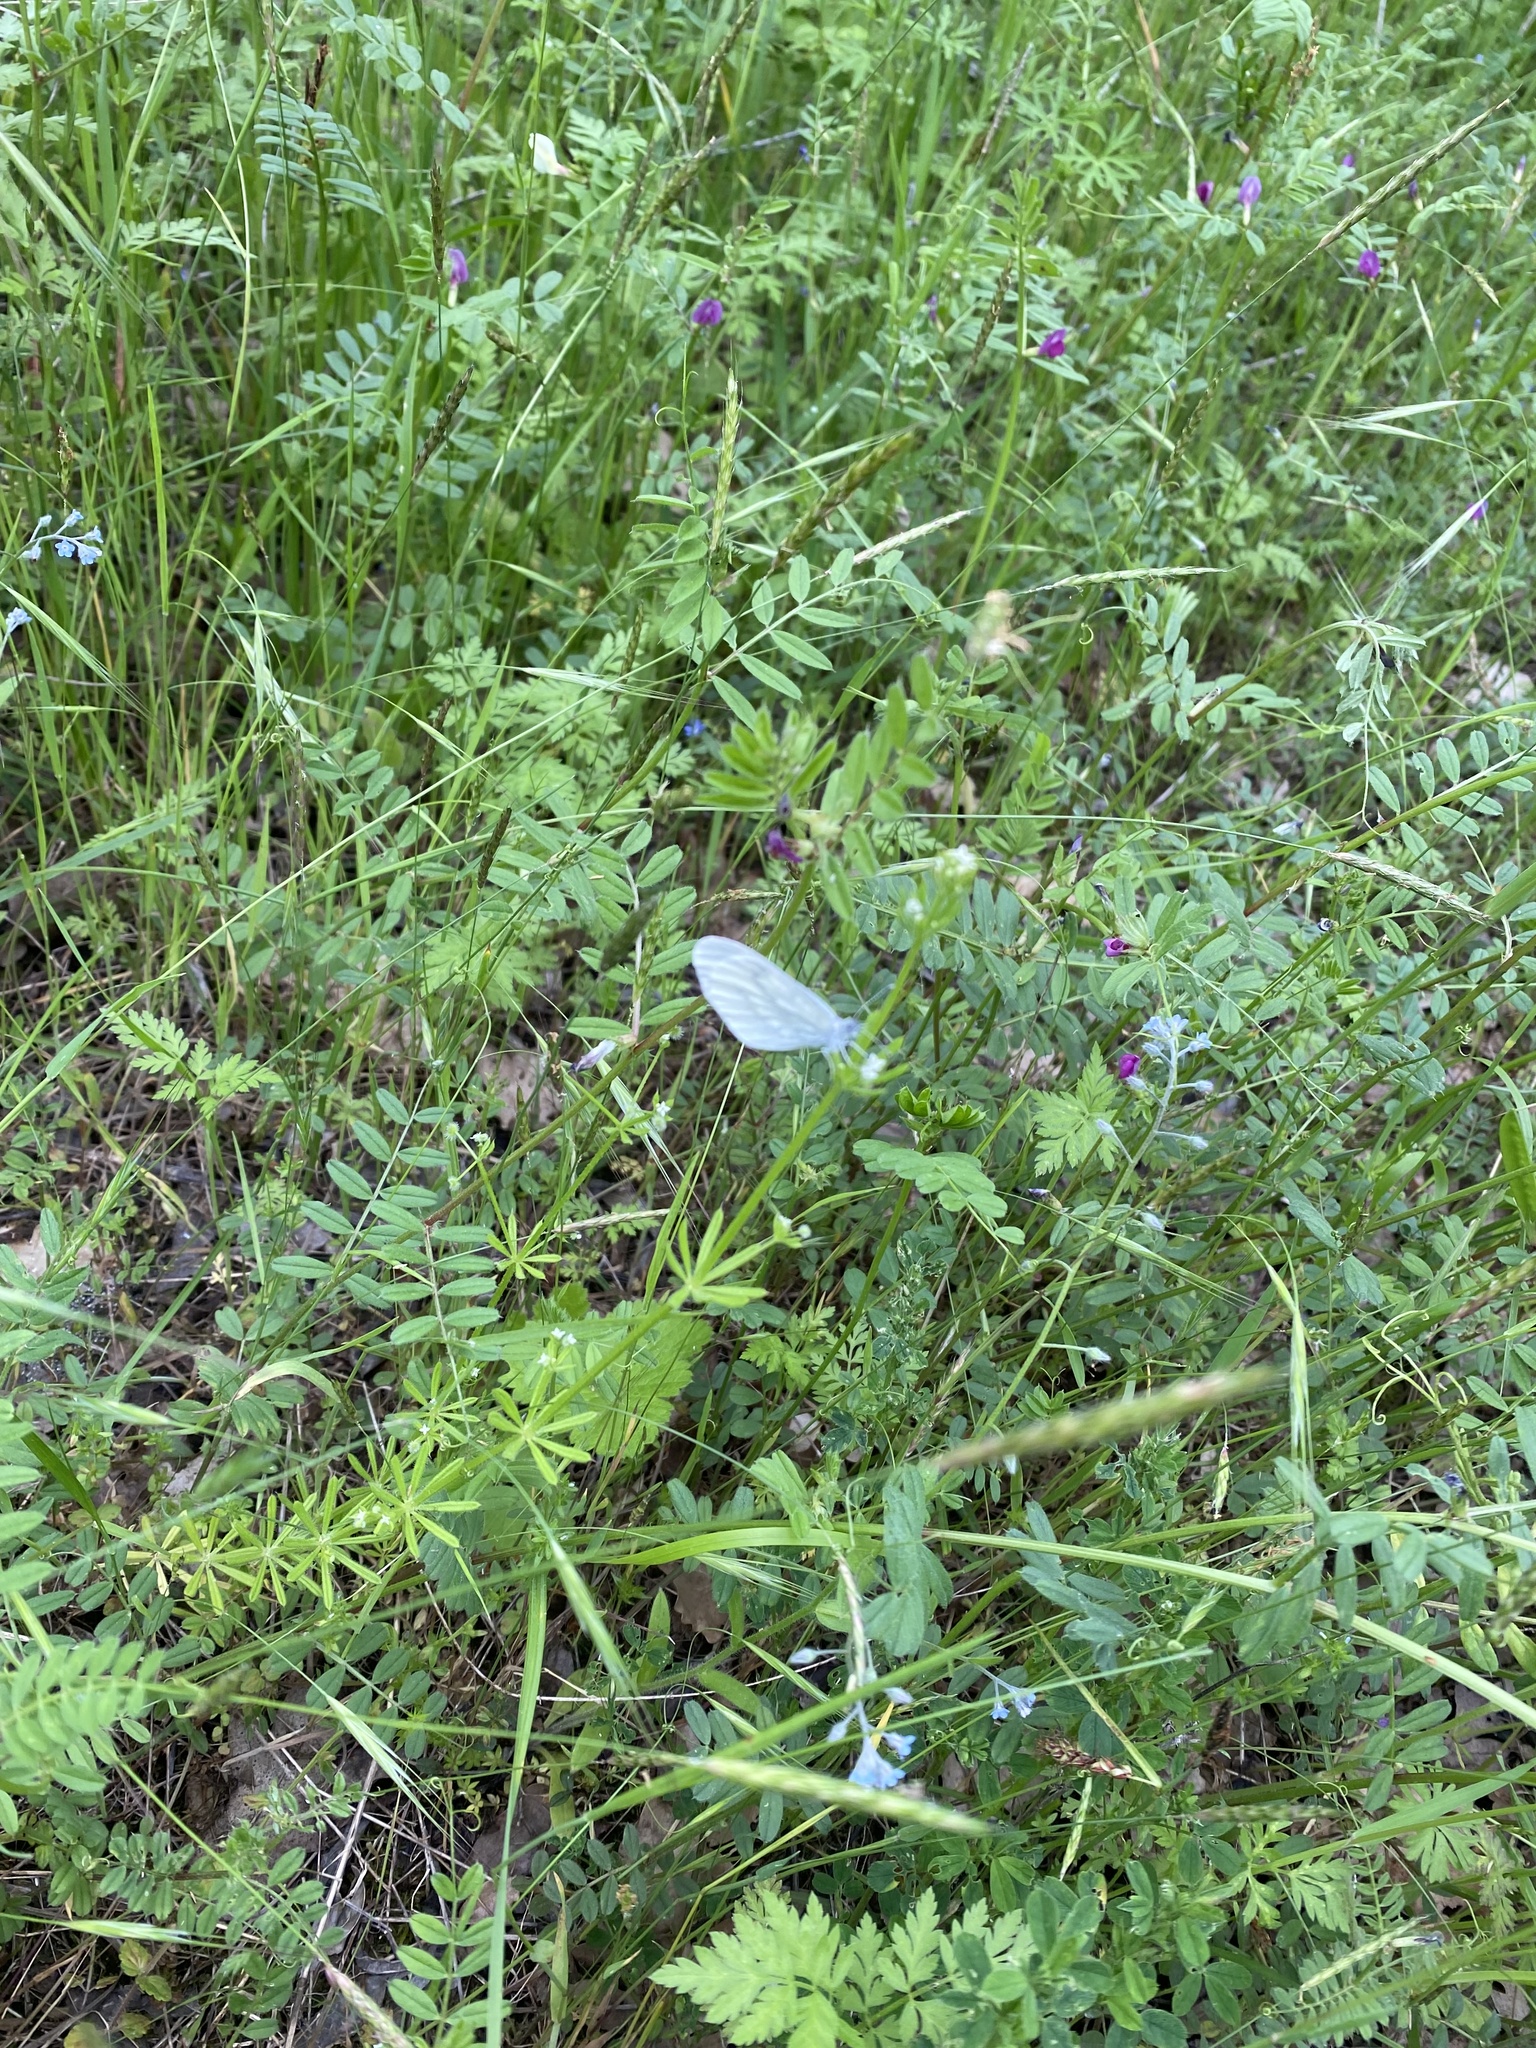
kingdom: Animalia
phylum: Arthropoda
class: Insecta
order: Lepidoptera
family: Pieridae
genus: Leptidea
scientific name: Leptidea
